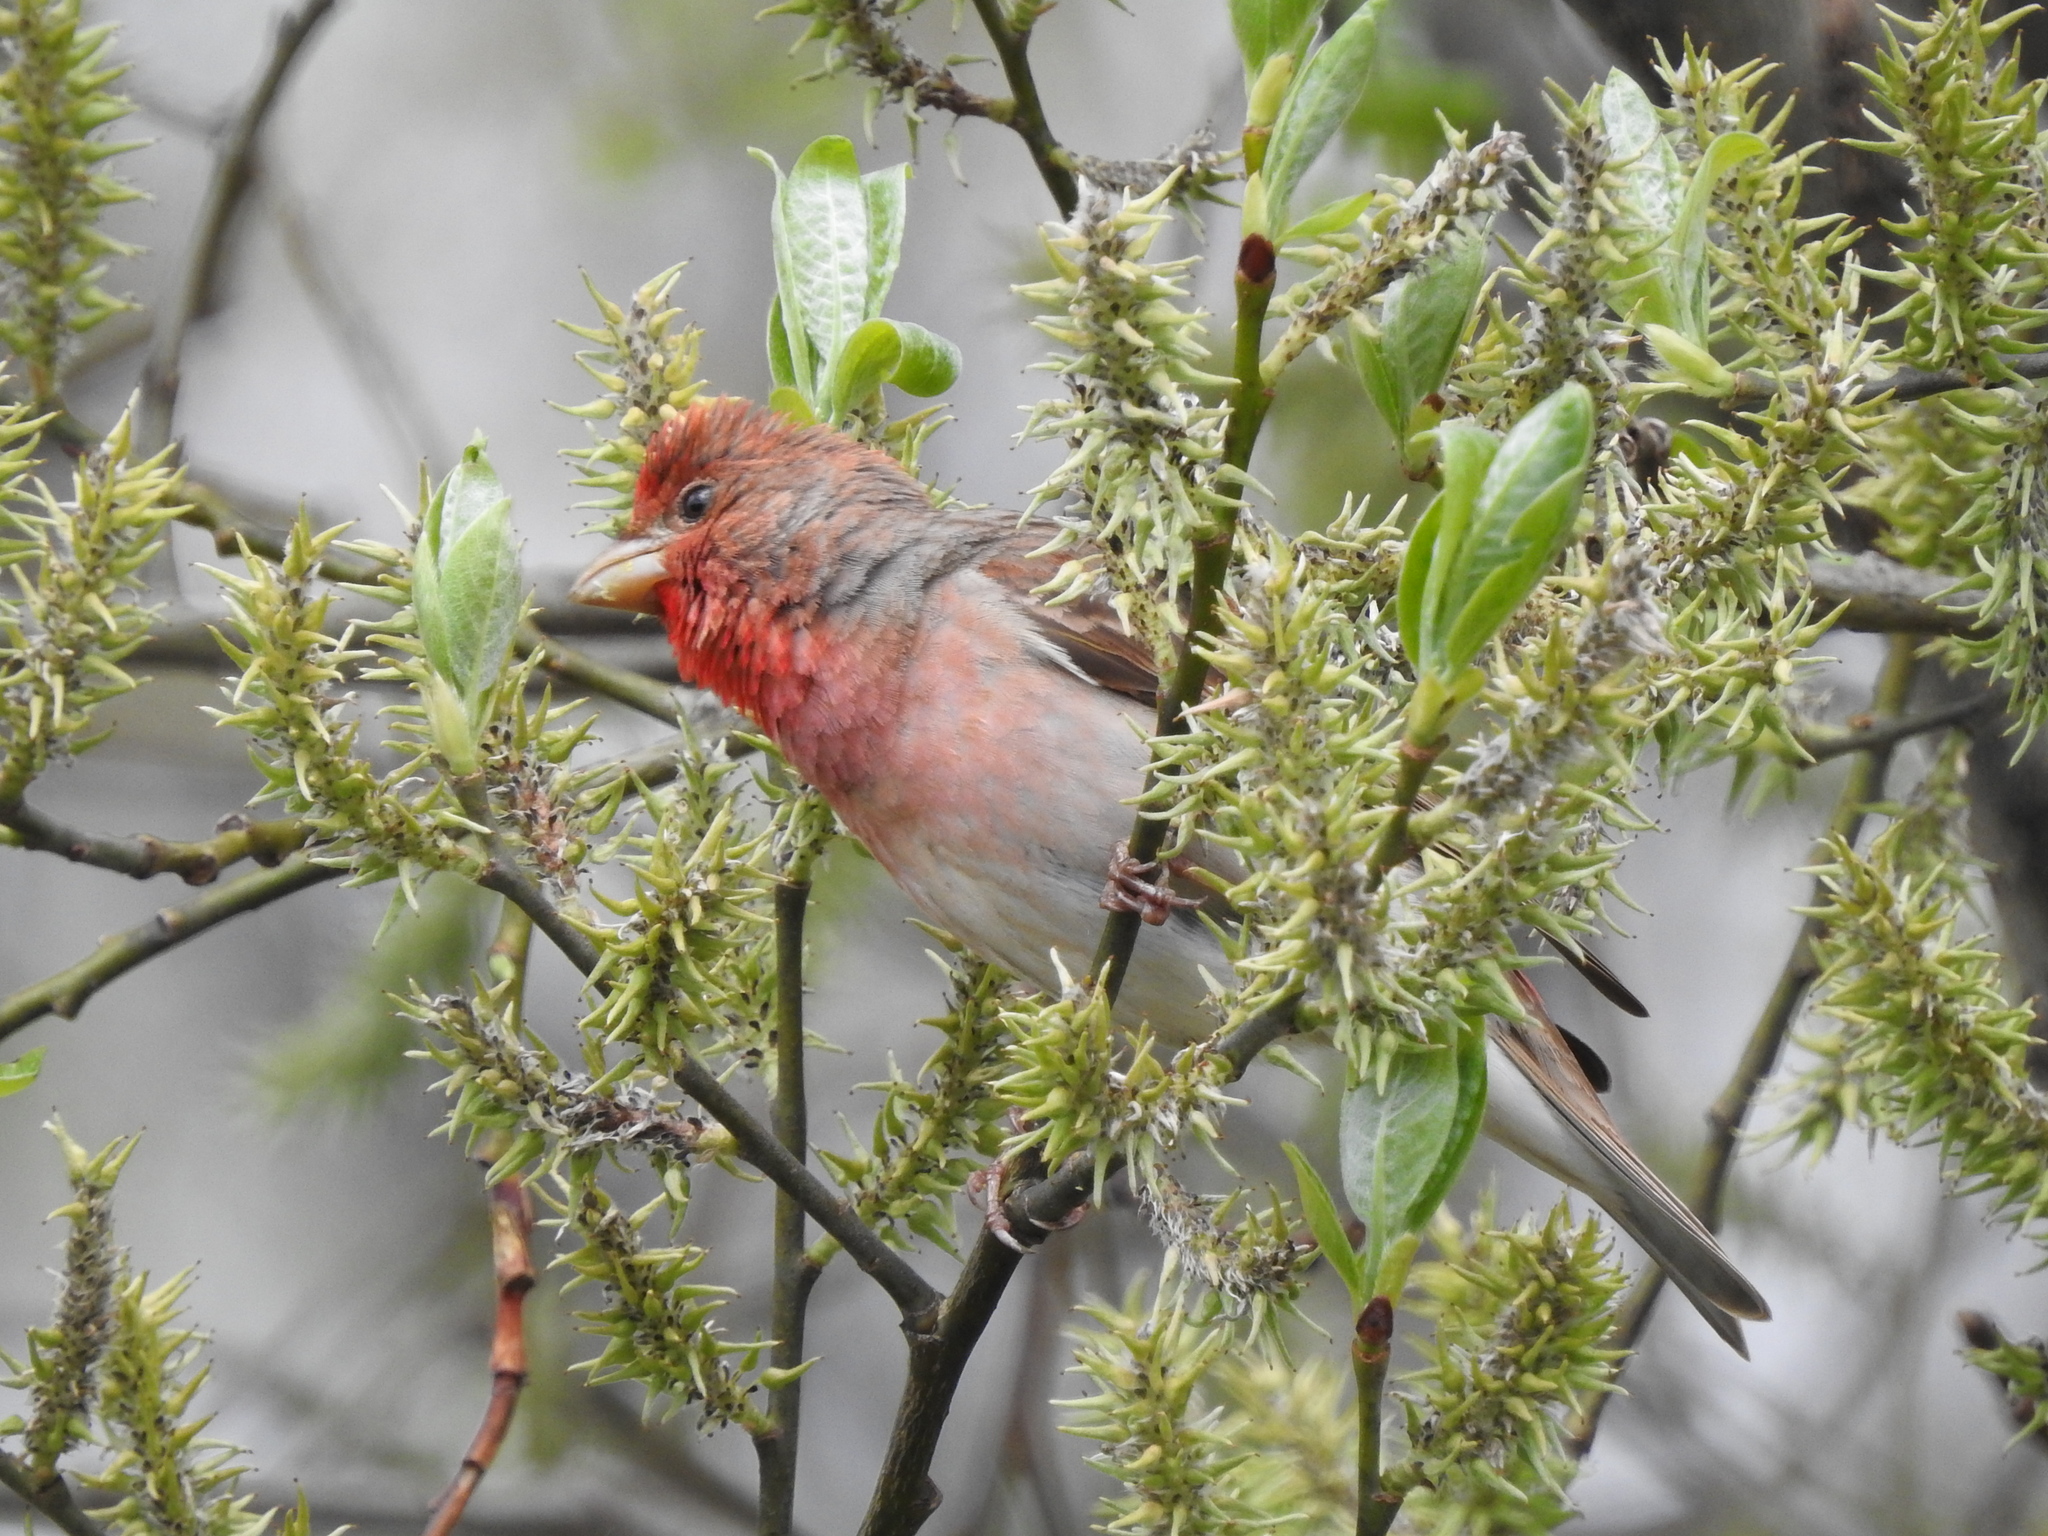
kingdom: Animalia
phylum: Chordata
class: Aves
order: Passeriformes
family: Fringillidae
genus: Carpodacus
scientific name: Carpodacus erythrinus
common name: Common rosefinch
